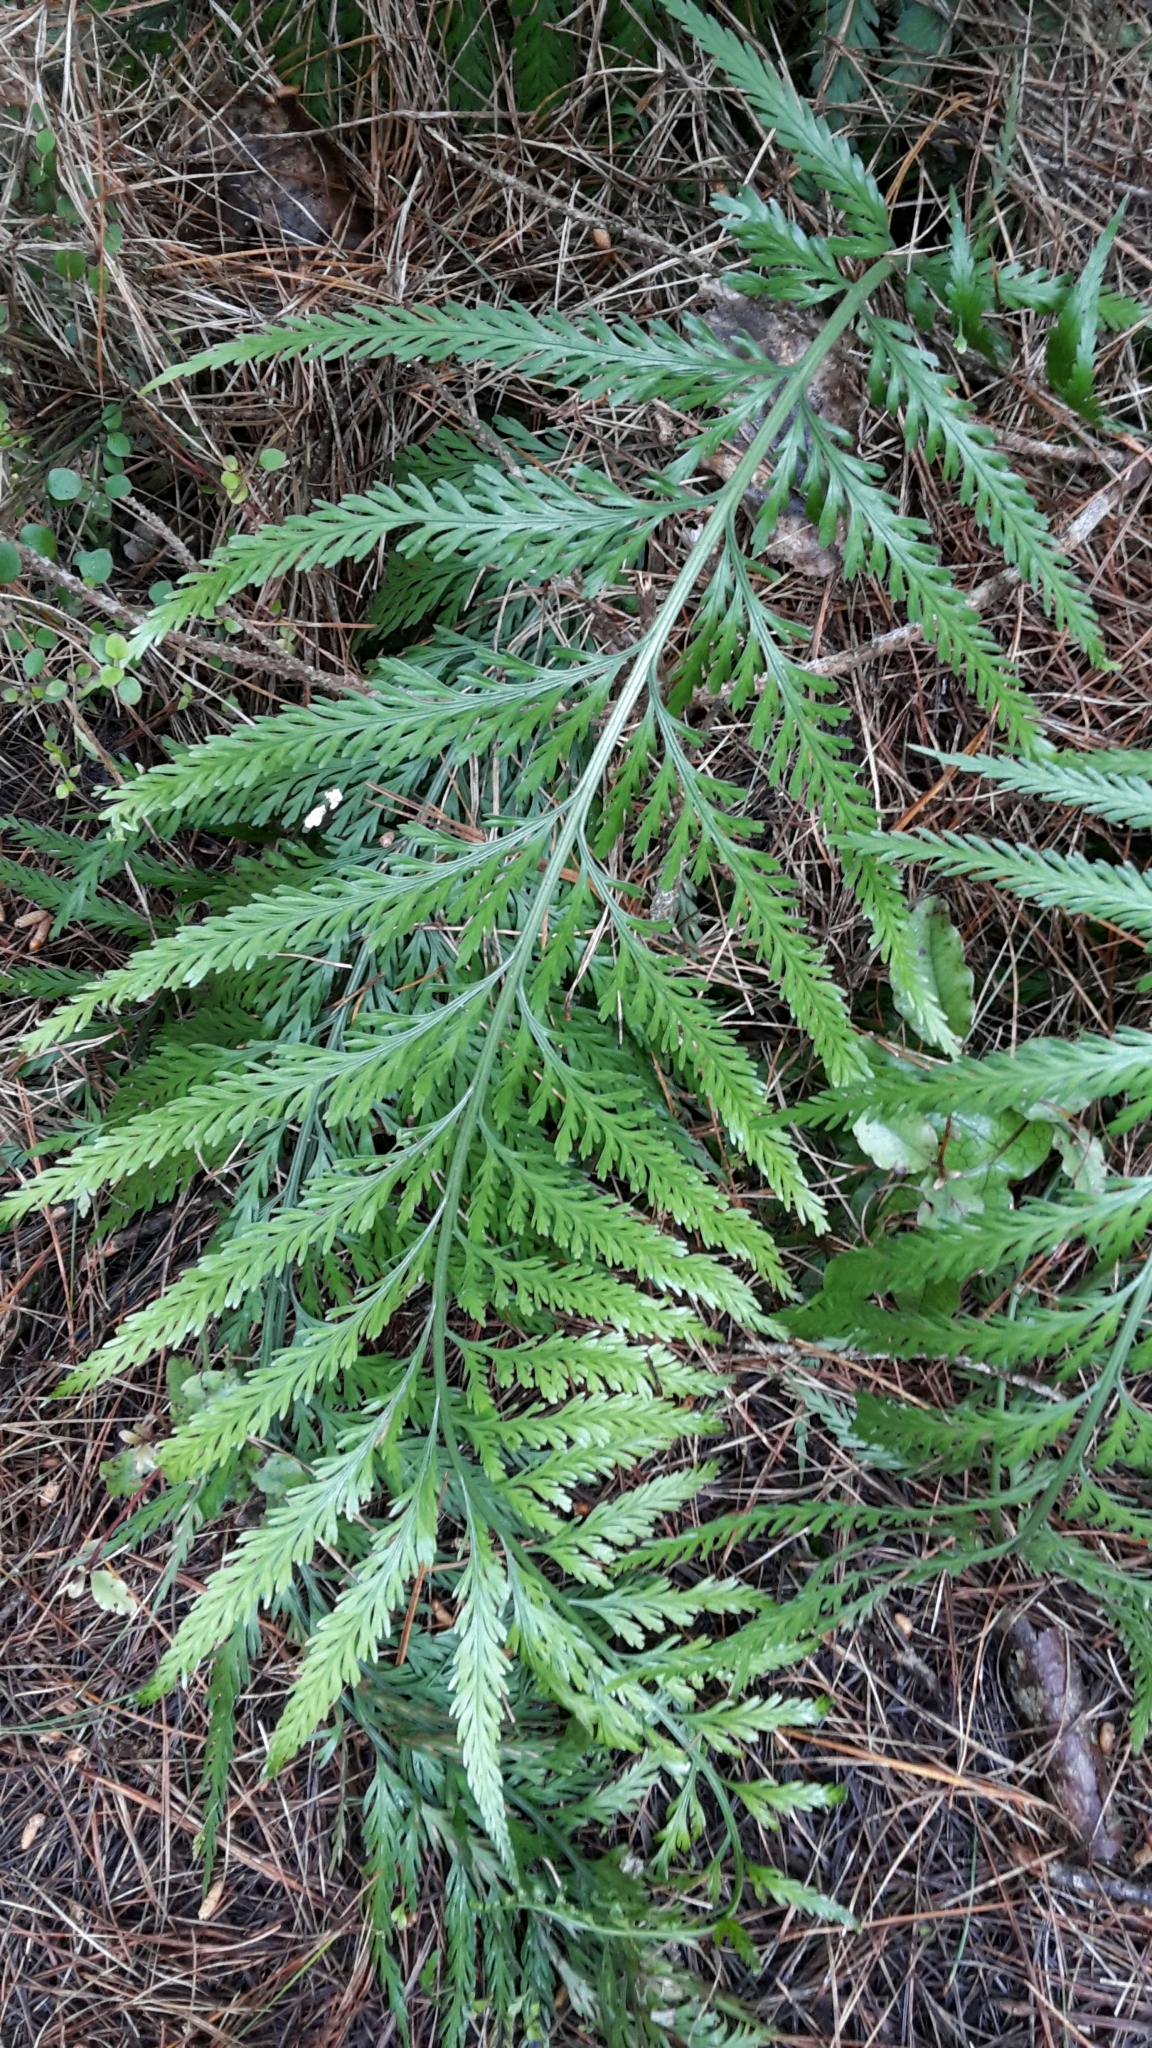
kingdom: Plantae
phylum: Tracheophyta
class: Polypodiopsida
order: Polypodiales
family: Aspleniaceae
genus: Asplenium
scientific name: Asplenium flaccidum
